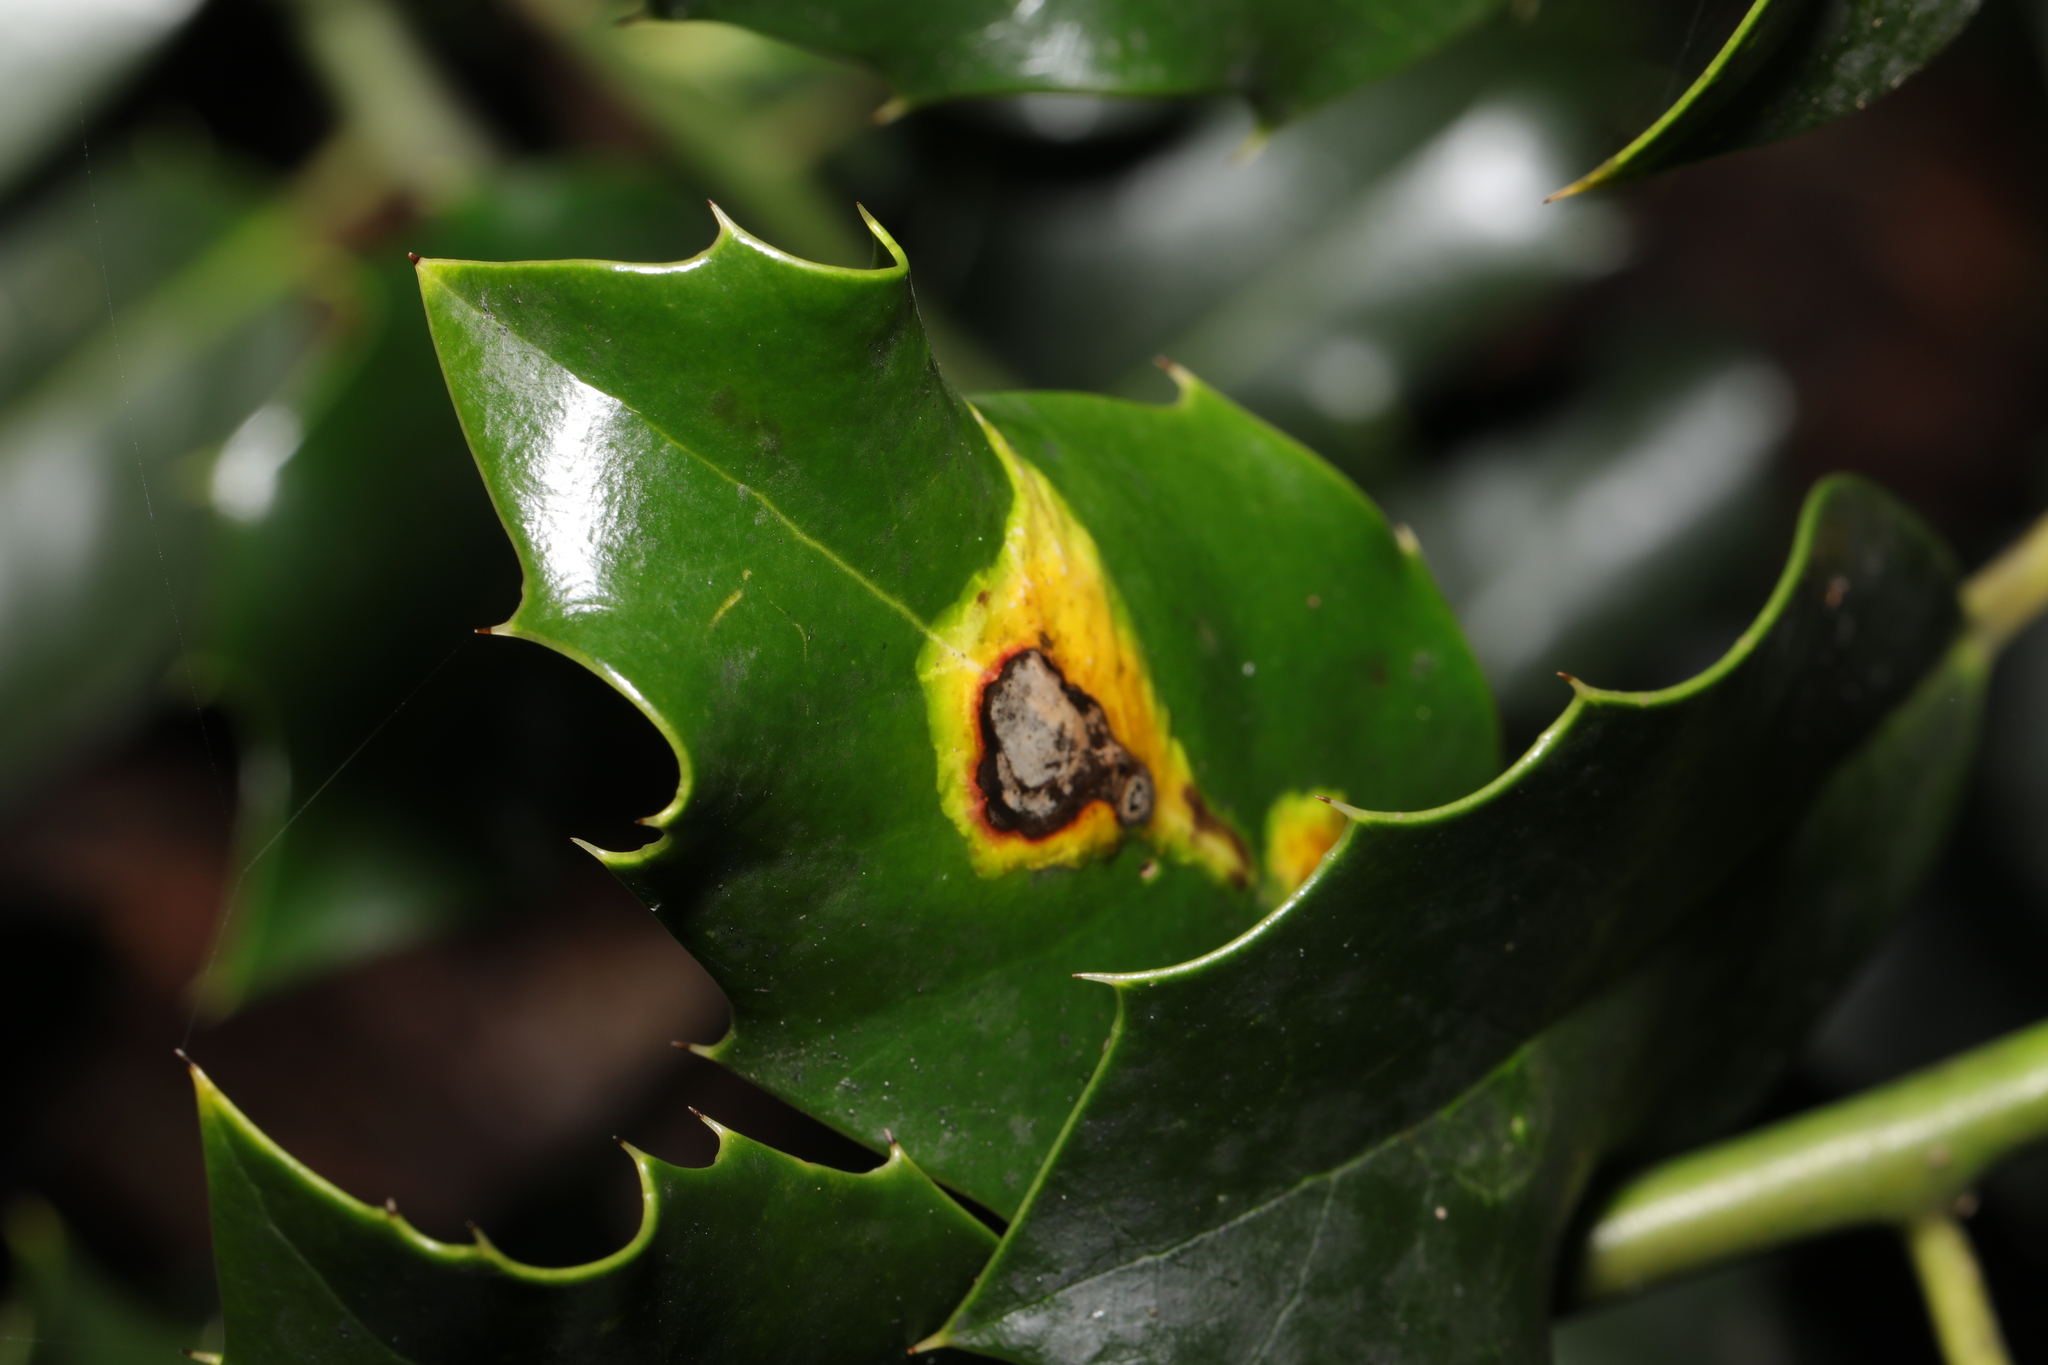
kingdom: Animalia
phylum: Arthropoda
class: Insecta
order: Diptera
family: Agromyzidae
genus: Phytomyza
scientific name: Phytomyza ilicis
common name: Holly leafminer
